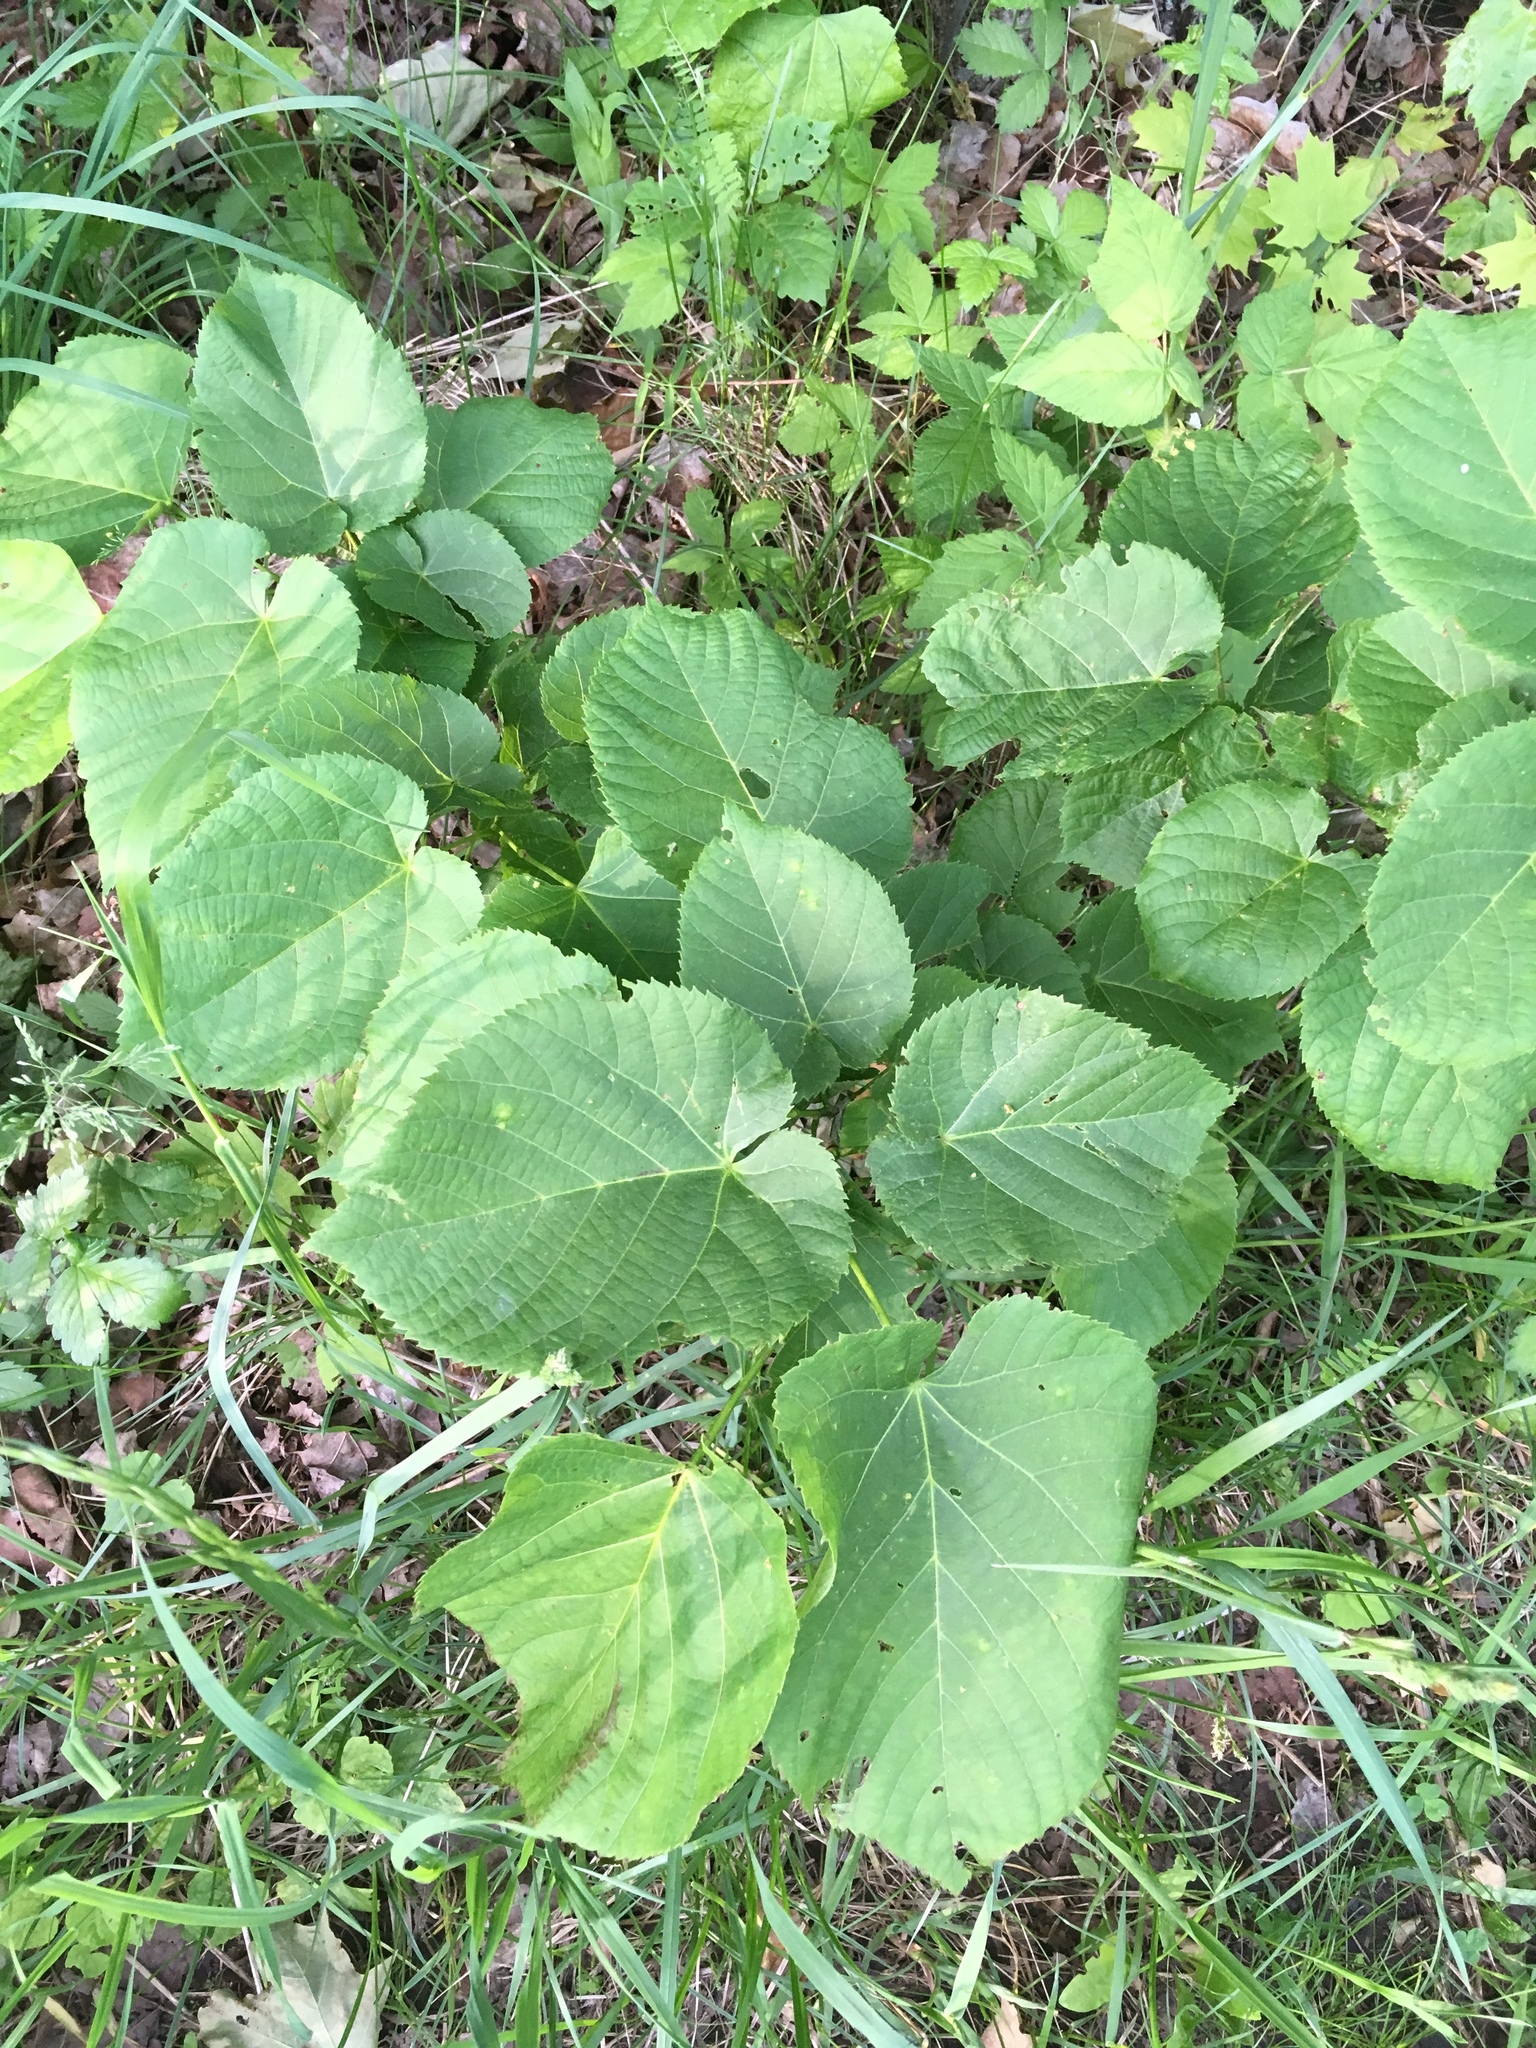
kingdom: Plantae
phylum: Tracheophyta
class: Magnoliopsida
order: Malvales
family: Malvaceae
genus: Tilia
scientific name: Tilia americana
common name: Basswood
